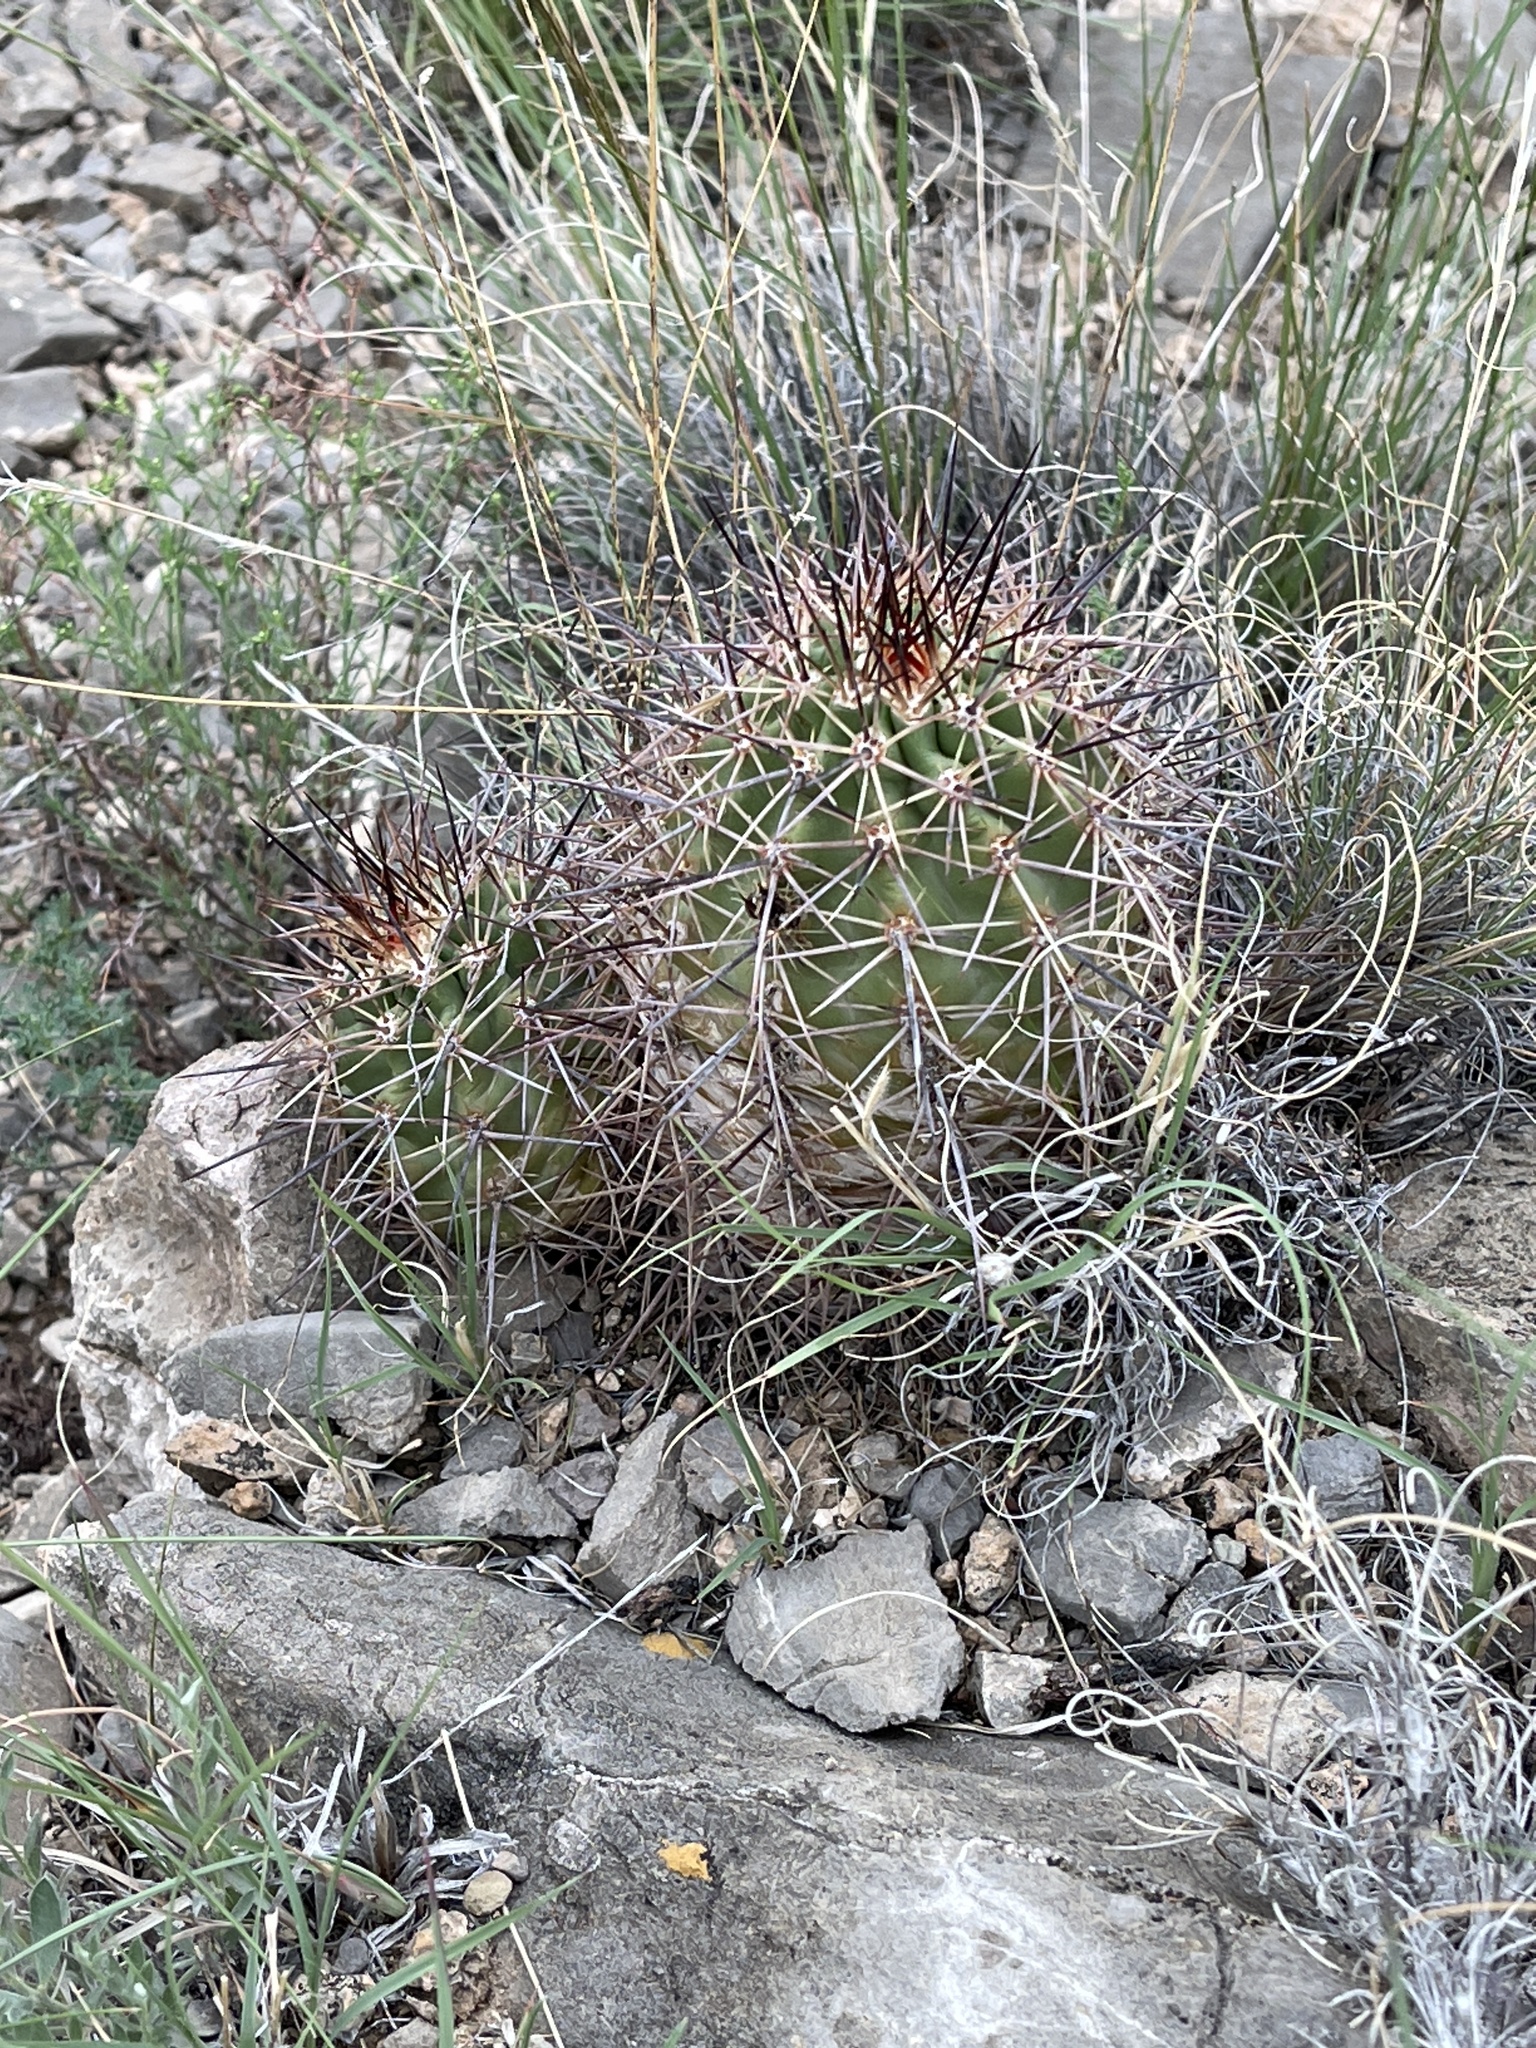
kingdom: Plantae
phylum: Tracheophyta
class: Magnoliopsida
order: Caryophyllales
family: Cactaceae
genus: Echinocereus
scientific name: Echinocereus coccineus
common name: Scarlet hedgehog cactus
